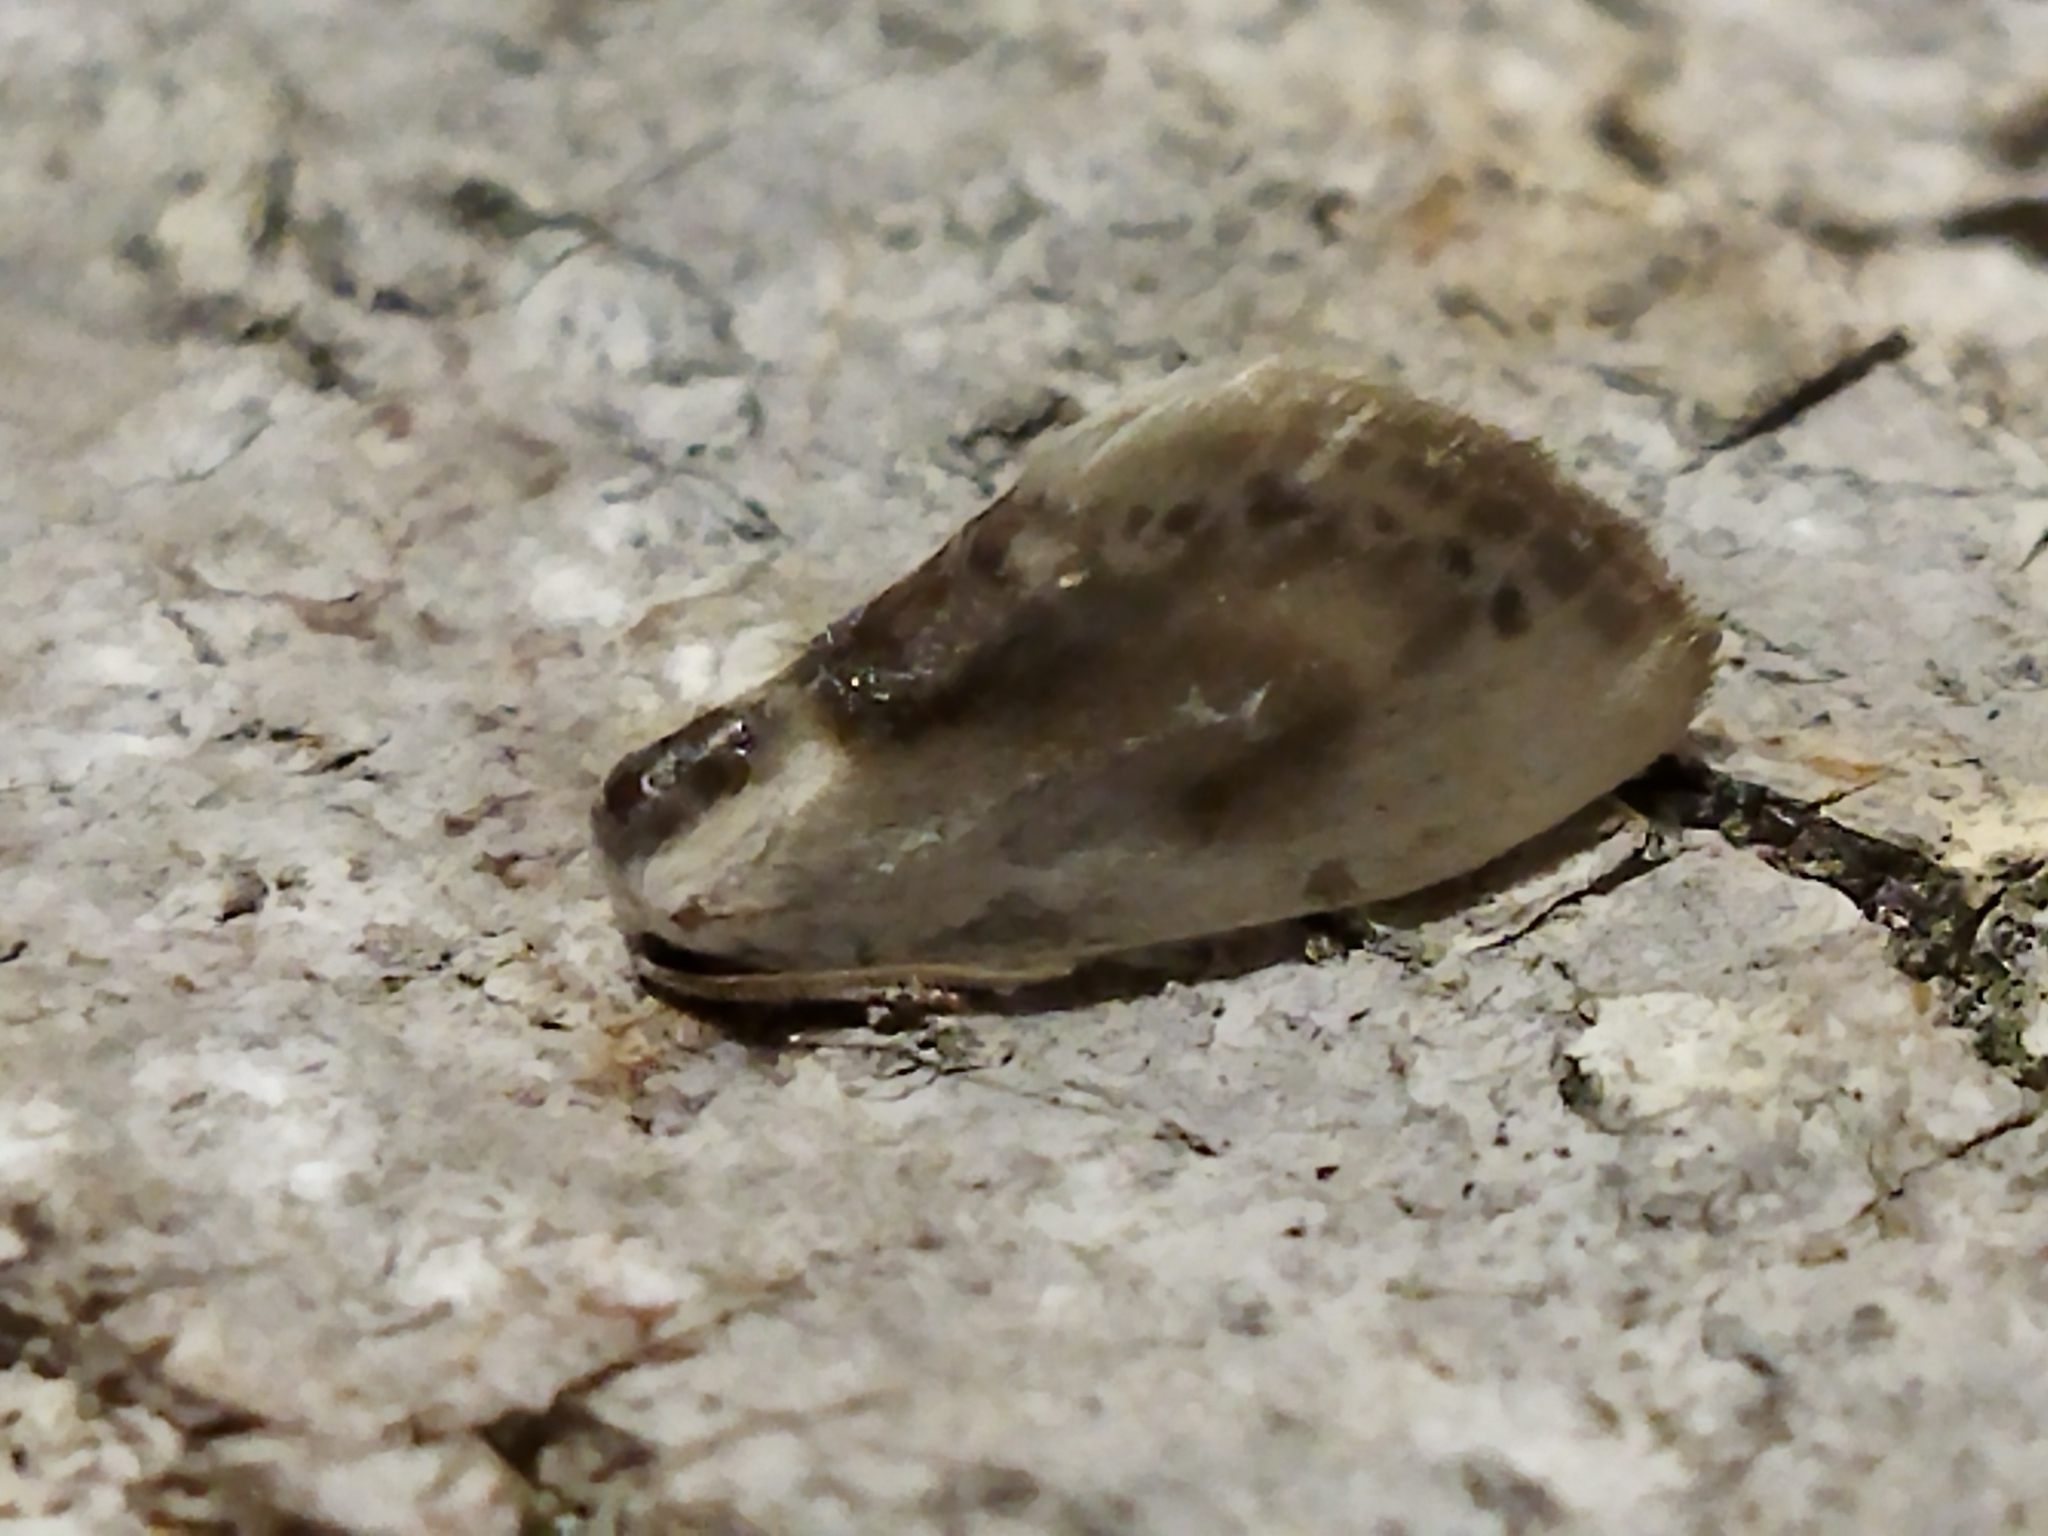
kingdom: Animalia
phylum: Arthropoda
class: Insecta
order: Lepidoptera
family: Drepanidae
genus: Cilix
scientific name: Cilix glaucata
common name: Chinese character
